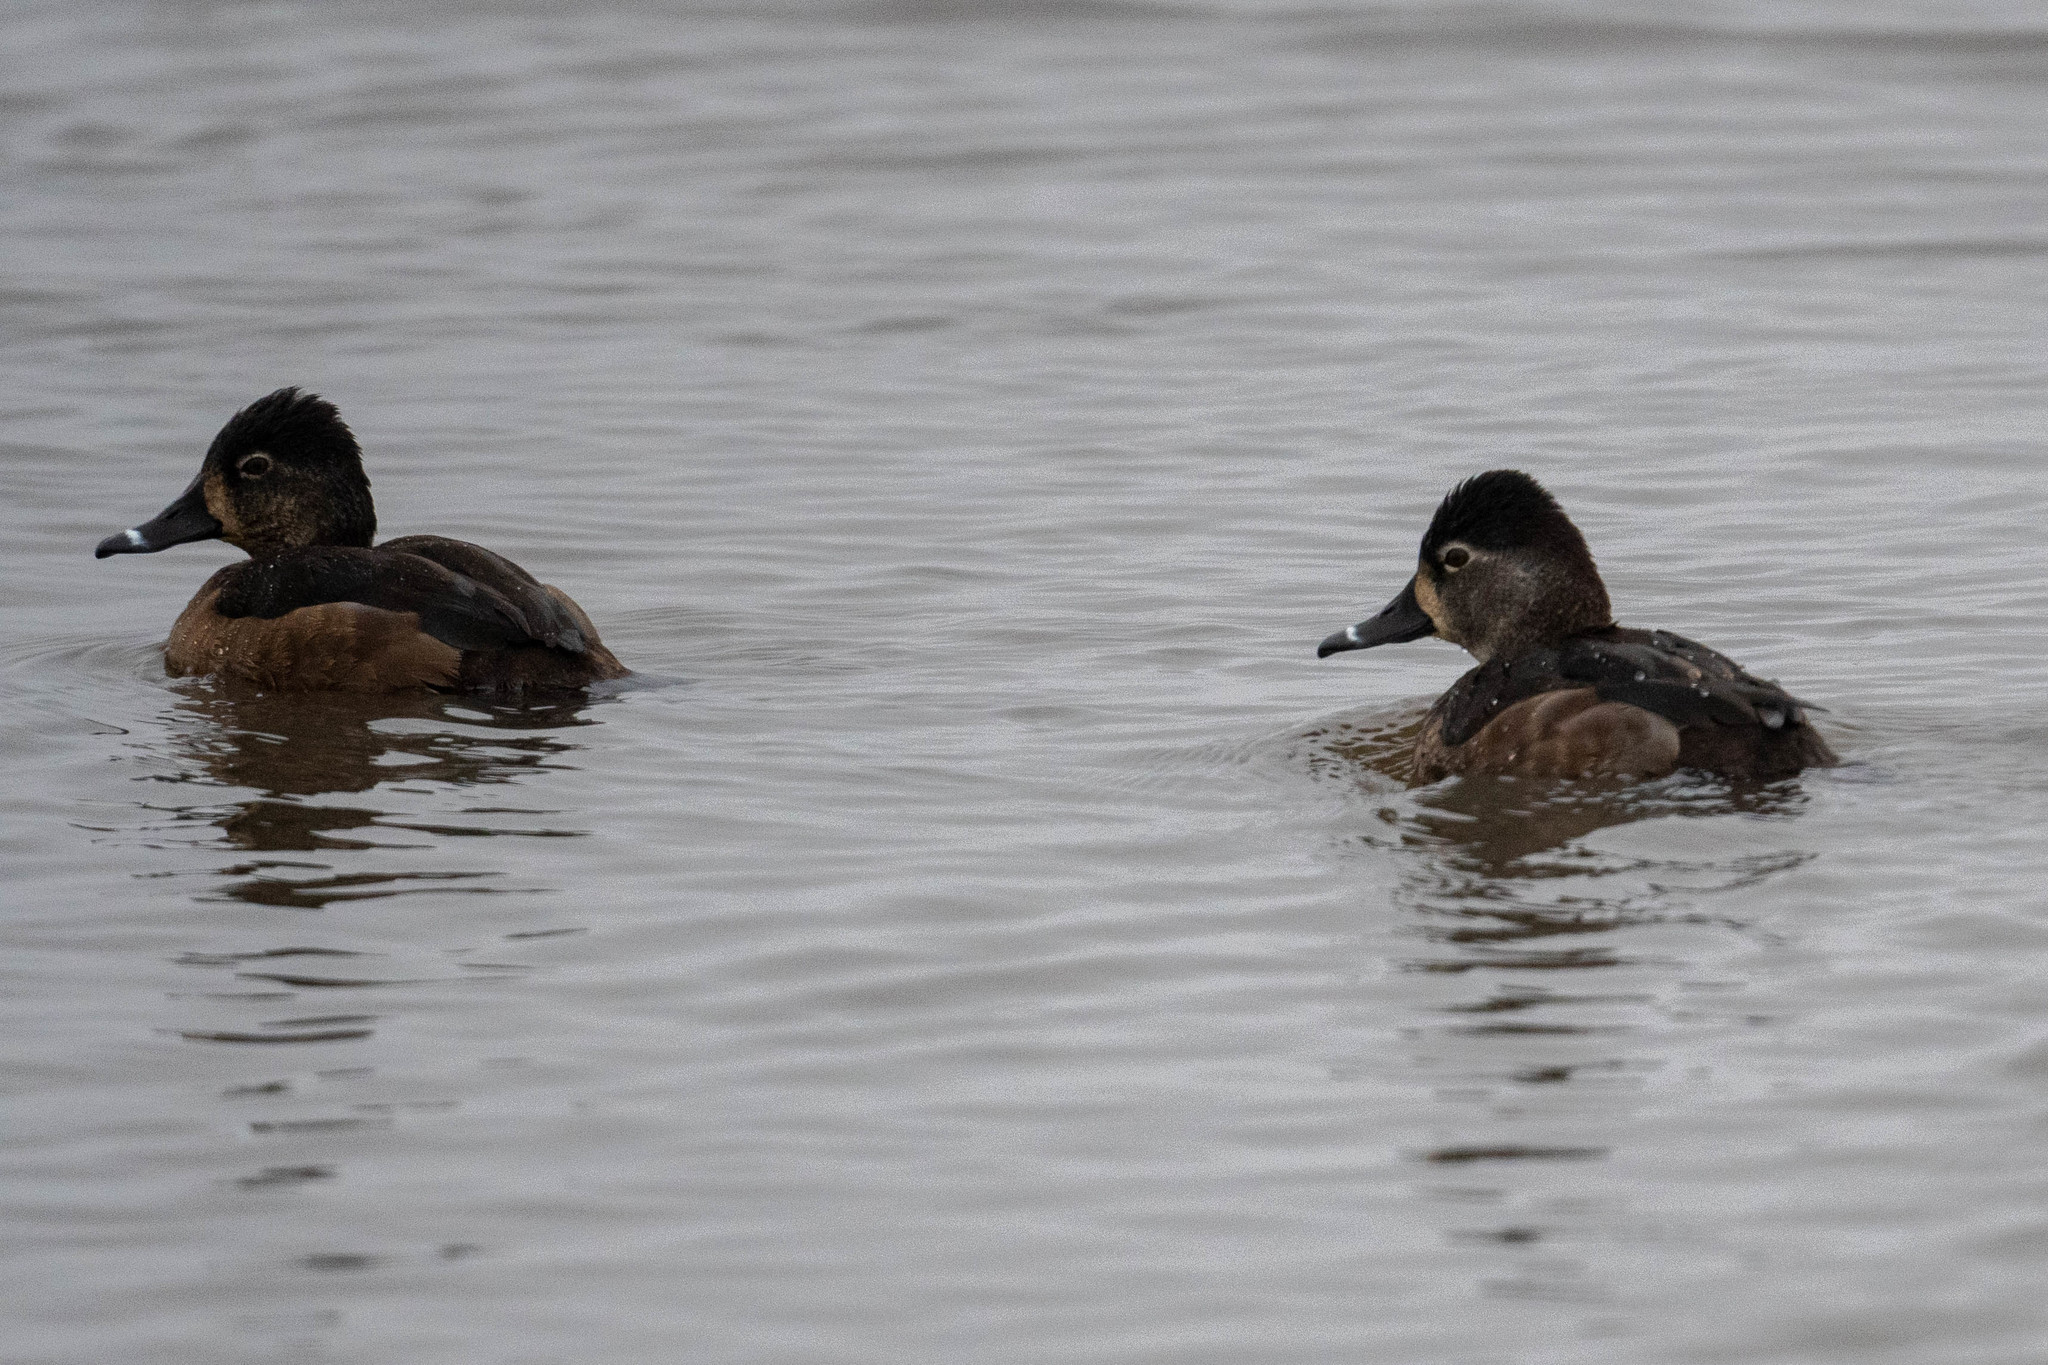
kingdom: Animalia
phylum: Chordata
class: Aves
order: Anseriformes
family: Anatidae
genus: Aythya
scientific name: Aythya collaris
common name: Ring-necked duck
